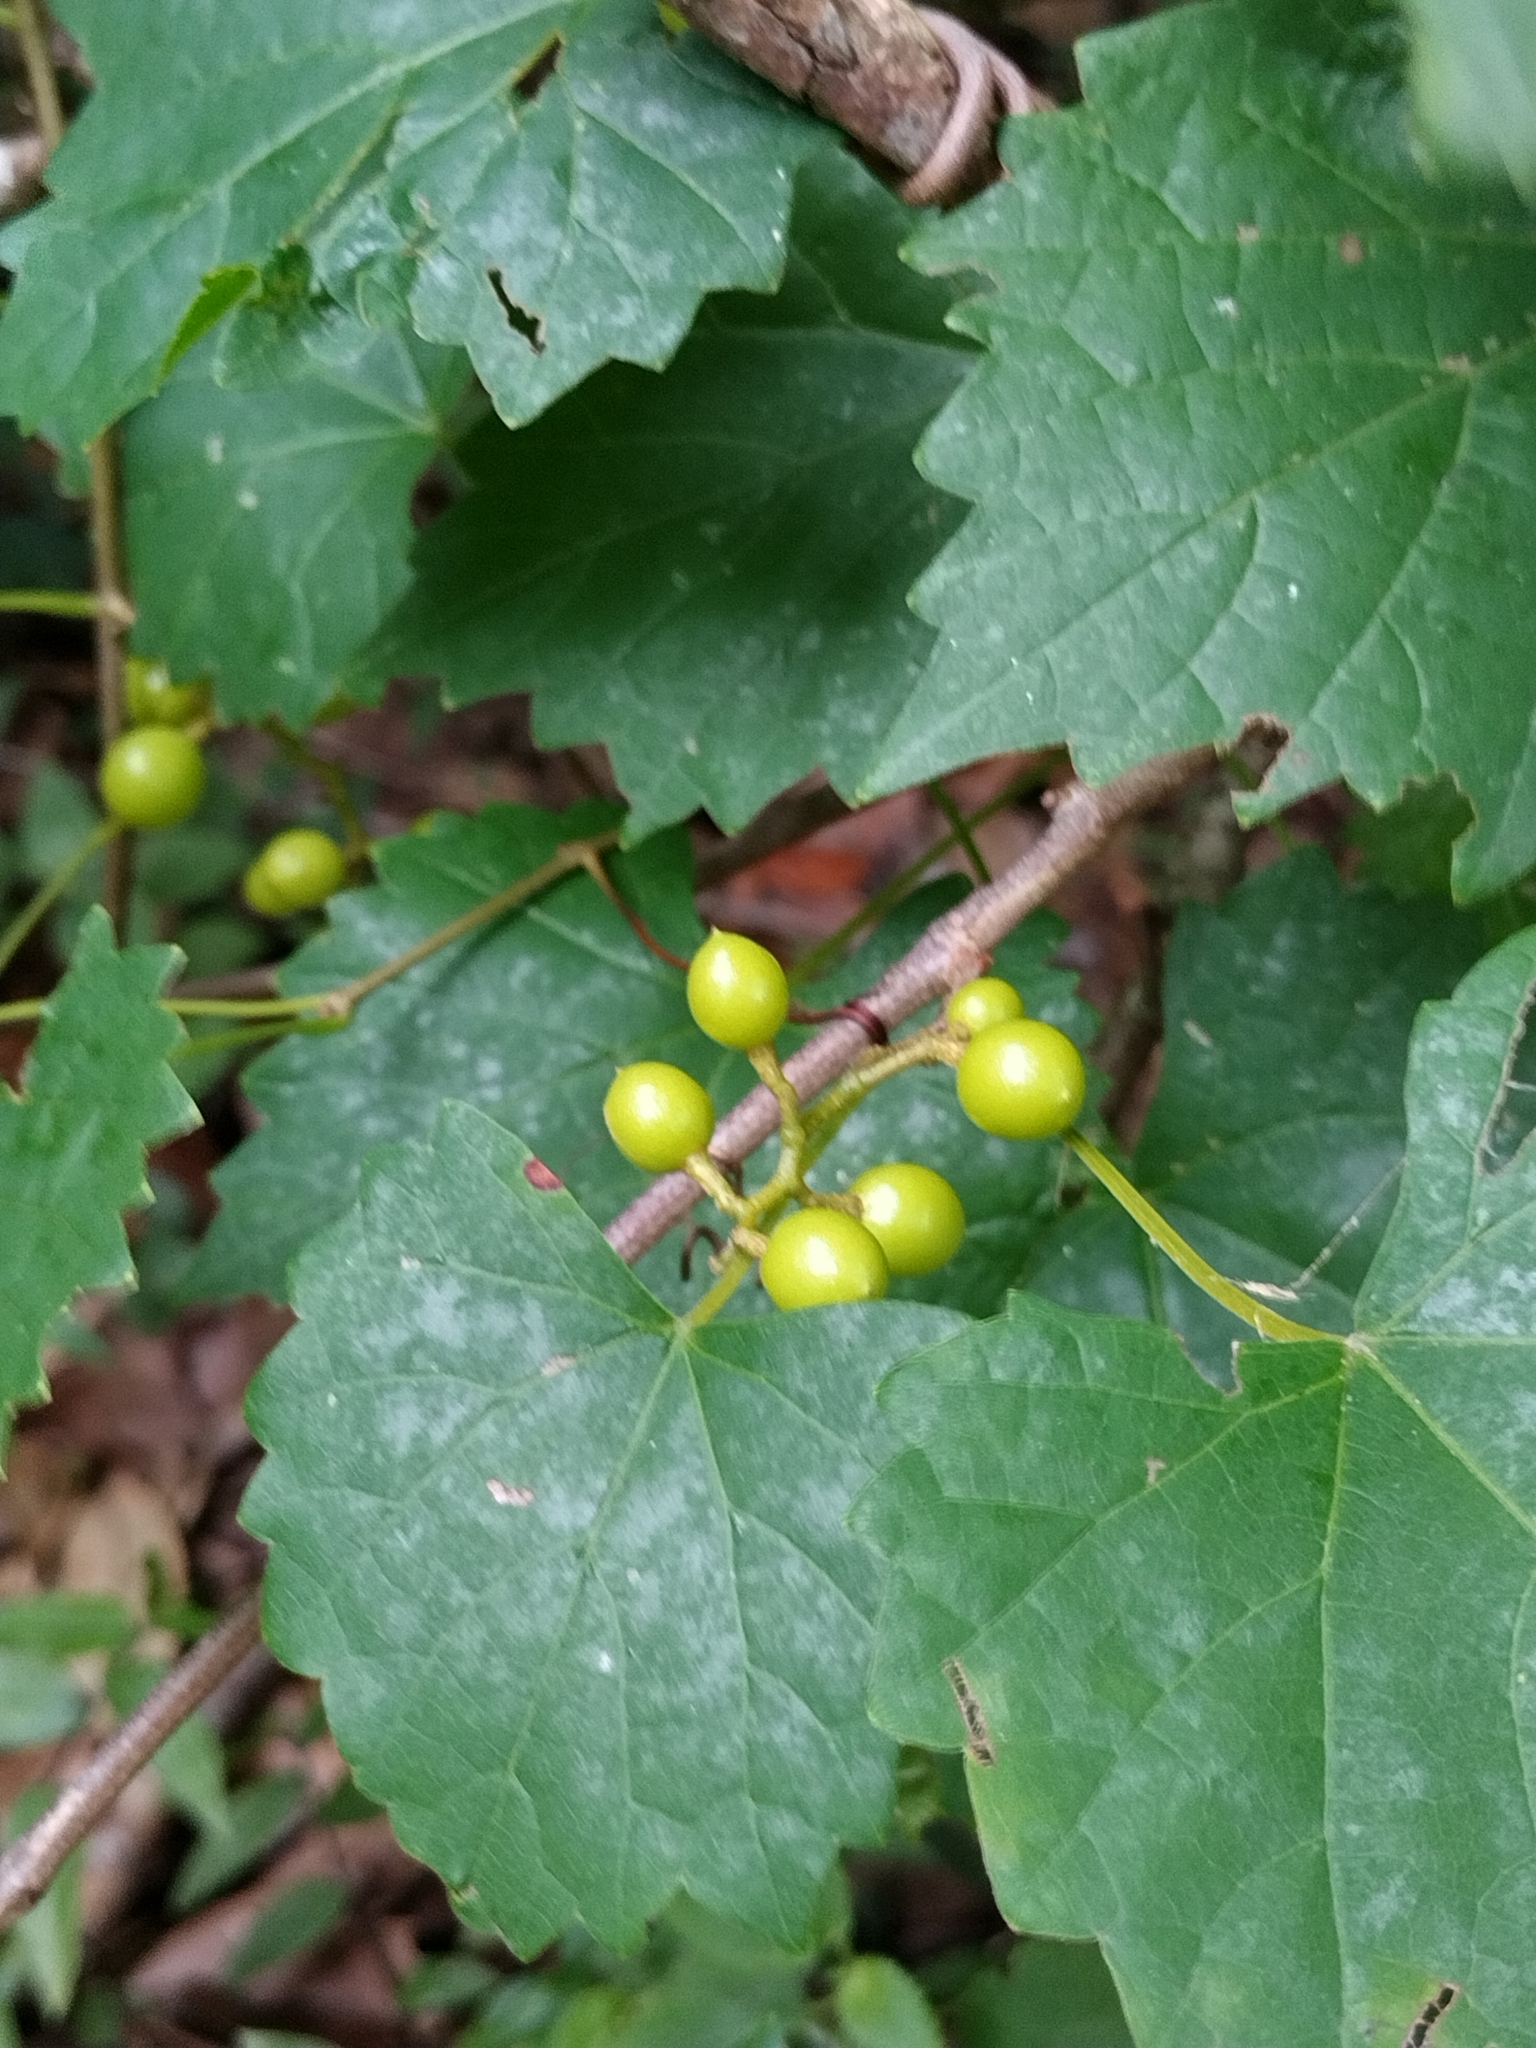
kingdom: Plantae
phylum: Tracheophyta
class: Magnoliopsida
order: Vitales
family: Vitaceae
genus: Vitis
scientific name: Vitis rotundifolia
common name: Muscadine grape
